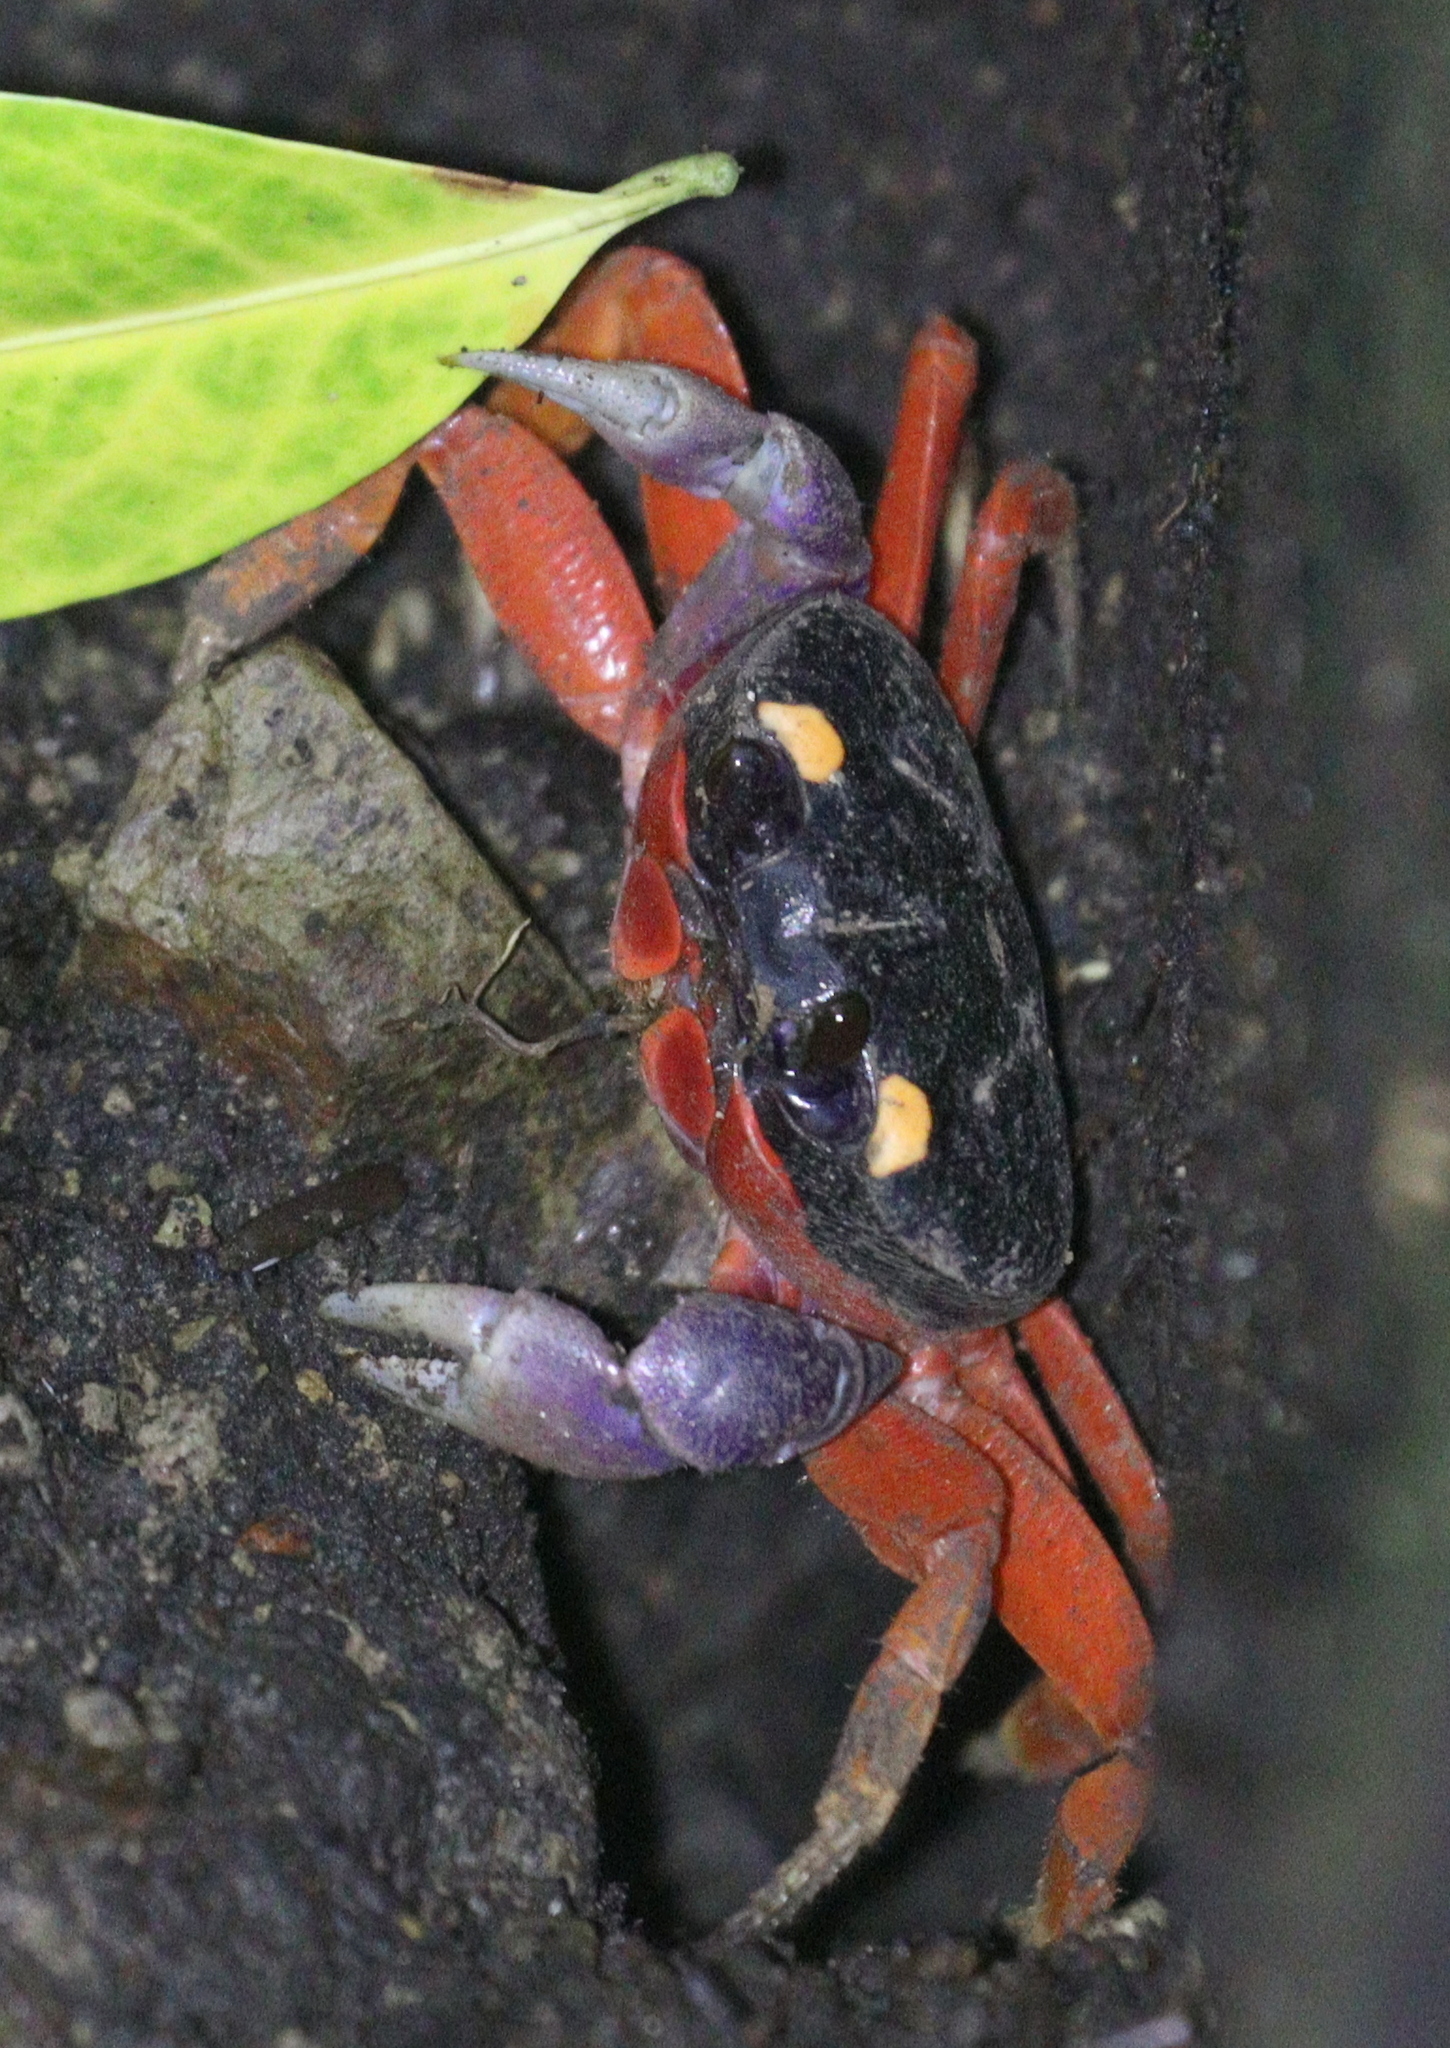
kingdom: Animalia
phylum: Arthropoda
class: Malacostraca
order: Decapoda
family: Gecarcinidae
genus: Gecarcinus
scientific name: Gecarcinus quadratus
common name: Halloween crab
